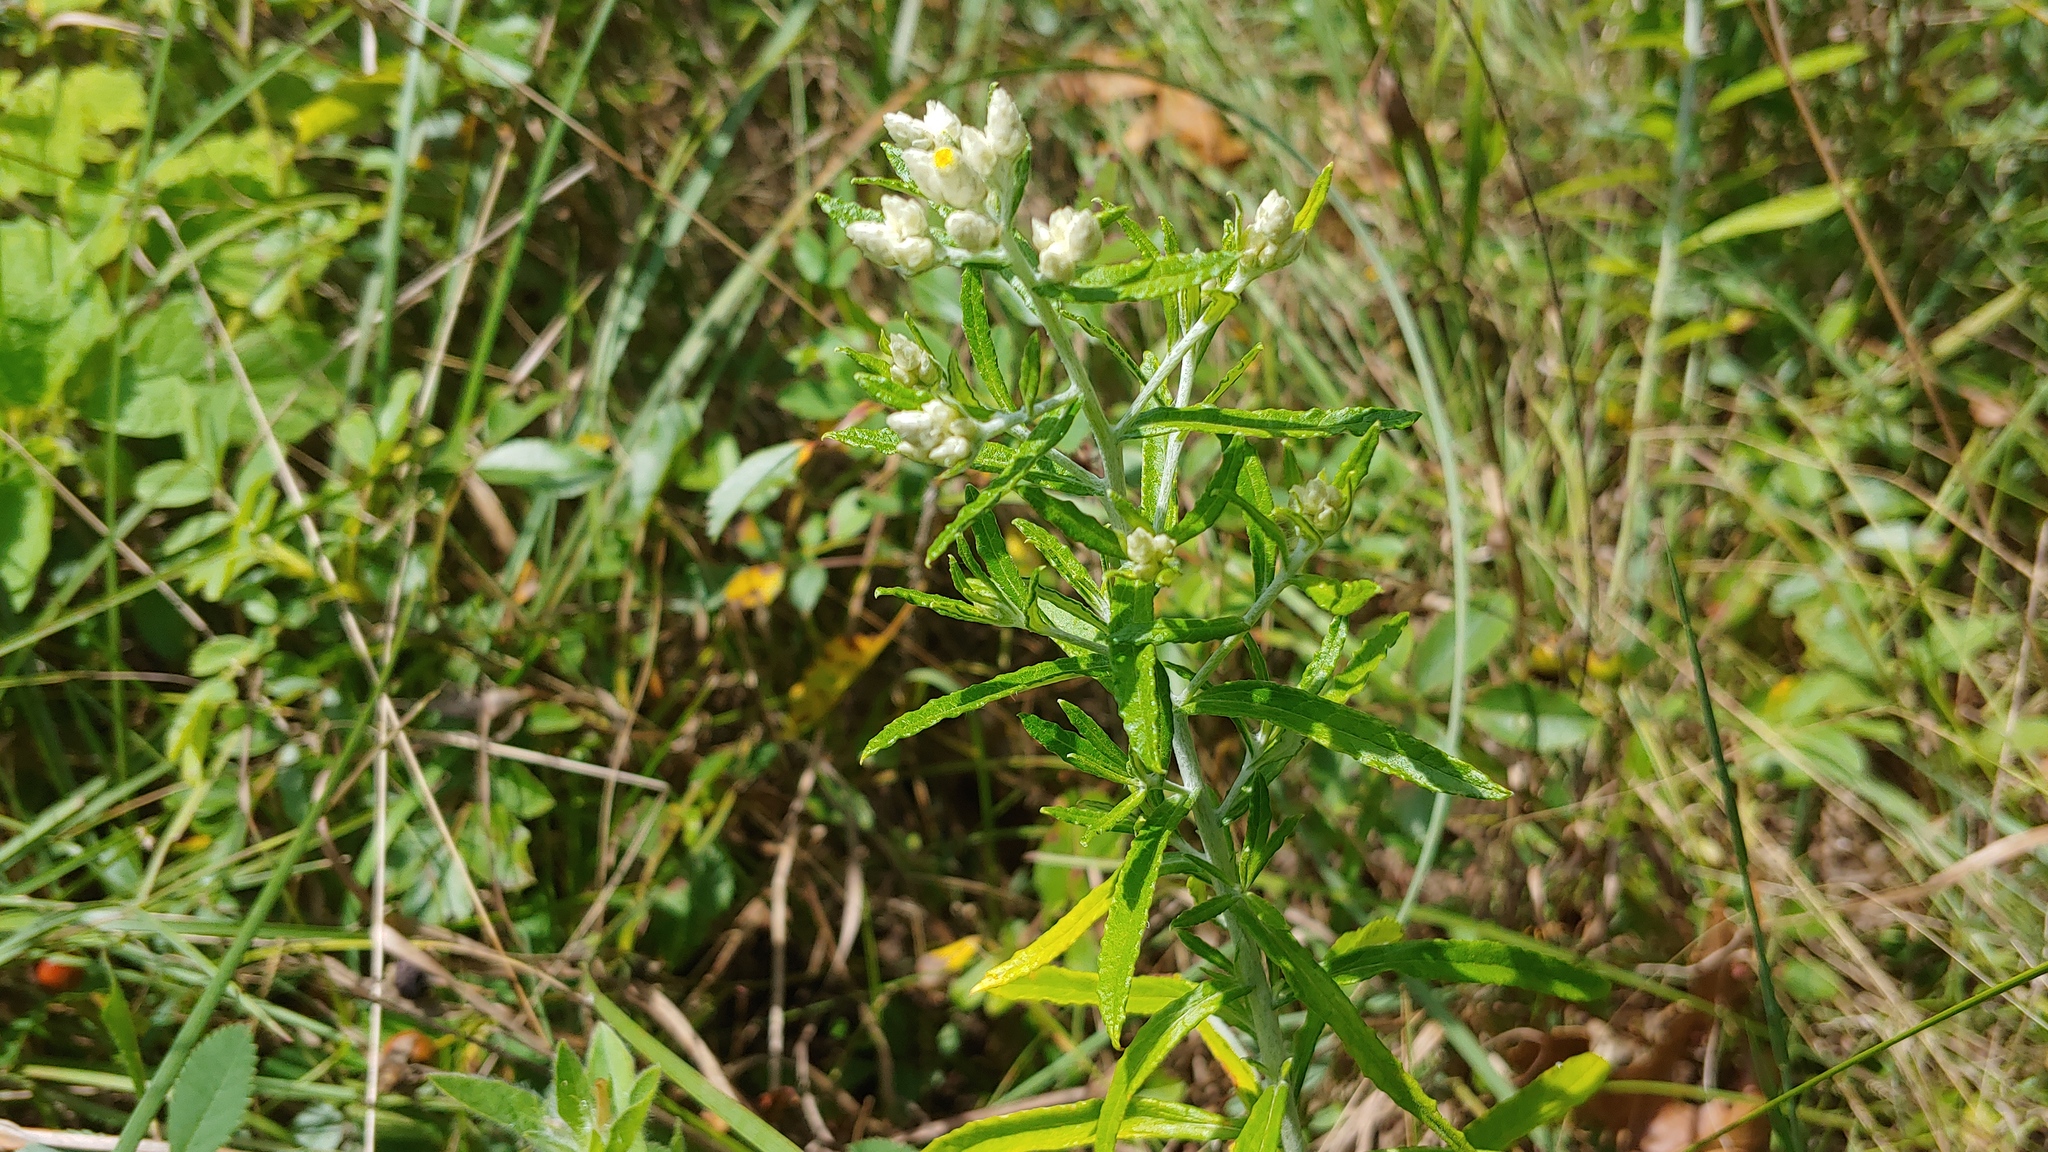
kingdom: Plantae
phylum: Tracheophyta
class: Magnoliopsida
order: Asterales
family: Asteraceae
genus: Pseudognaphalium
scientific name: Pseudognaphalium obtusifolium
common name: Eastern rabbit-tobacco
